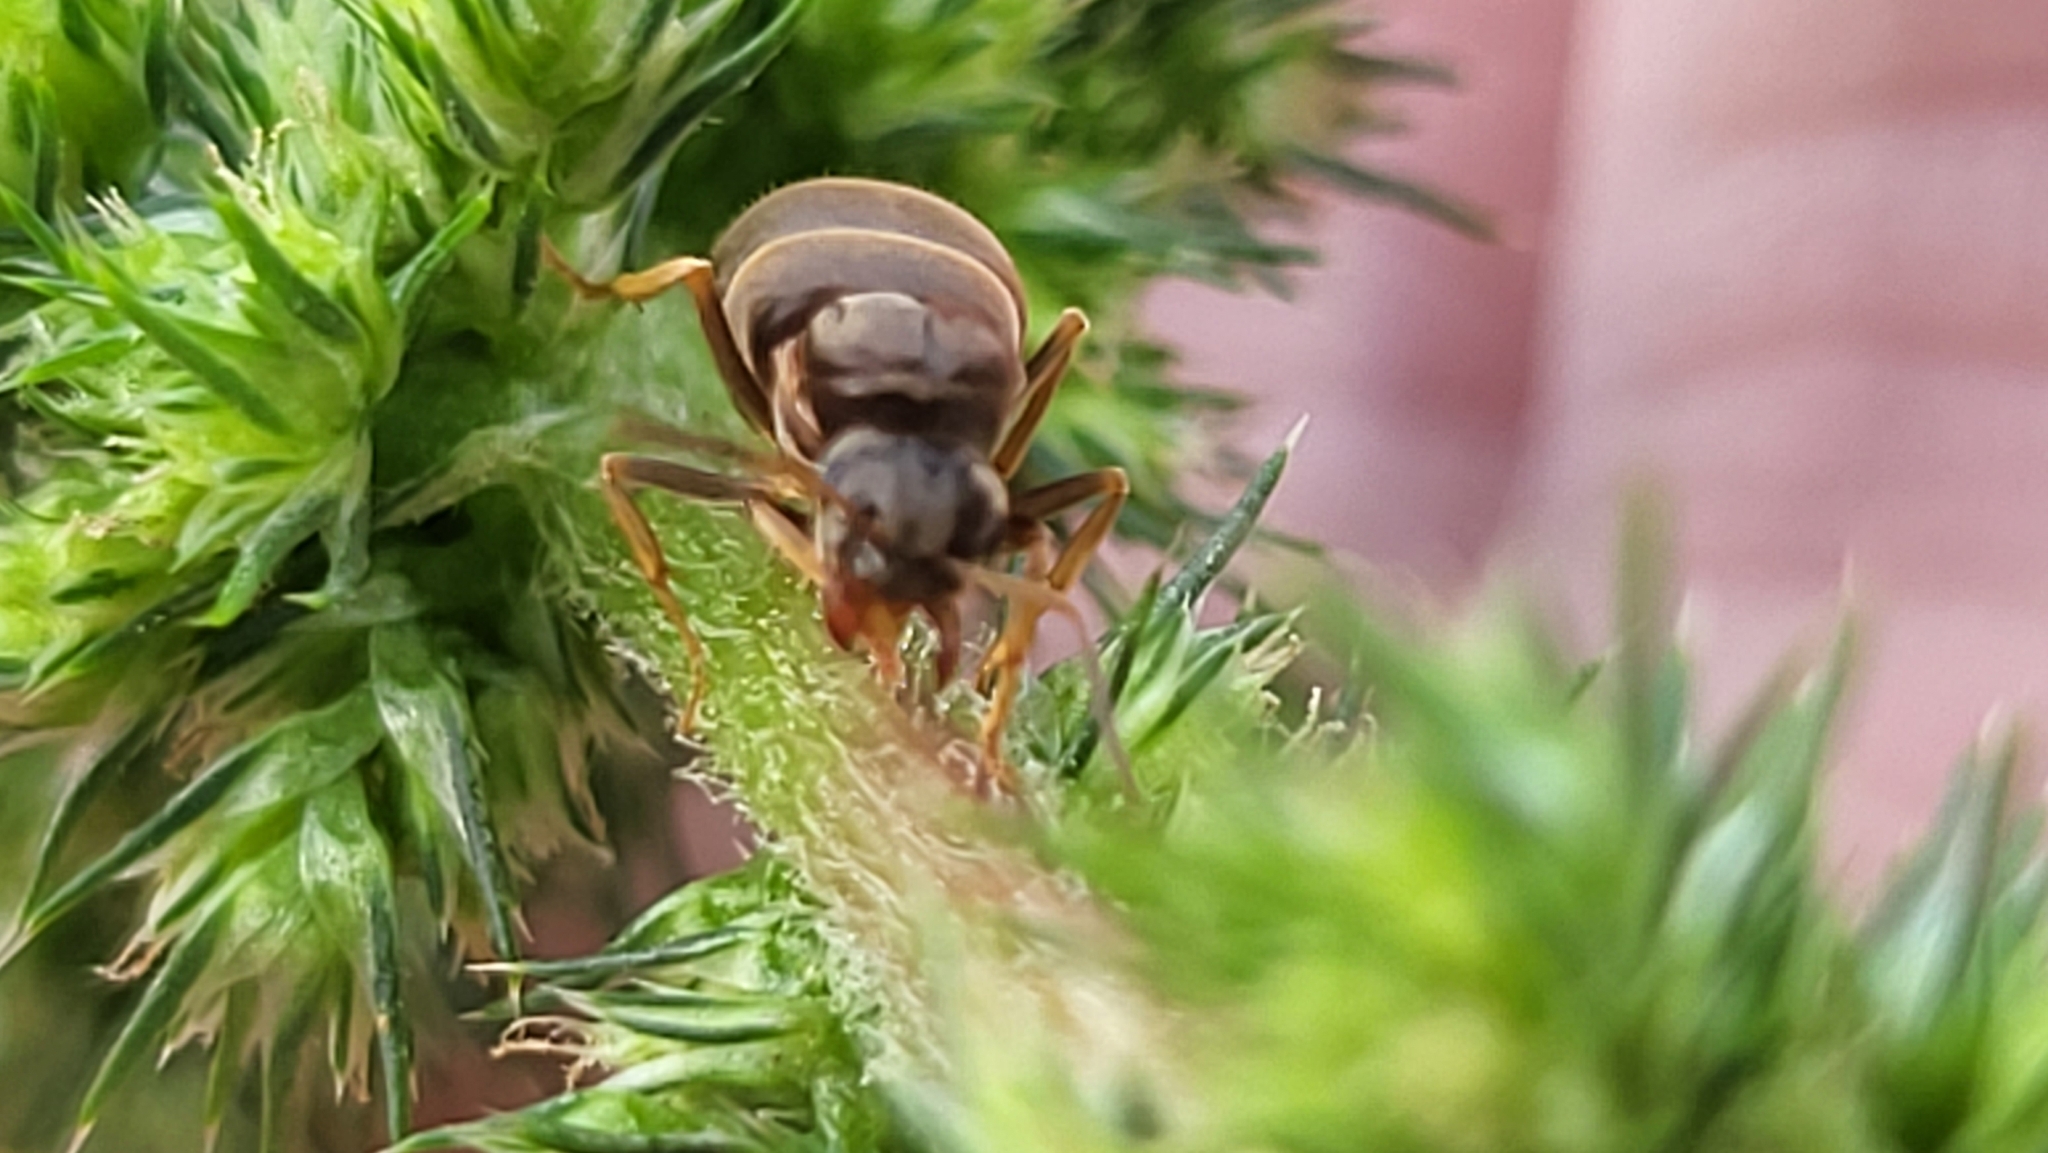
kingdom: Animalia
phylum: Arthropoda
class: Insecta
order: Hymenoptera
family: Formicidae
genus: Lasius
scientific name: Lasius neoniger
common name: Turfgrass ant
